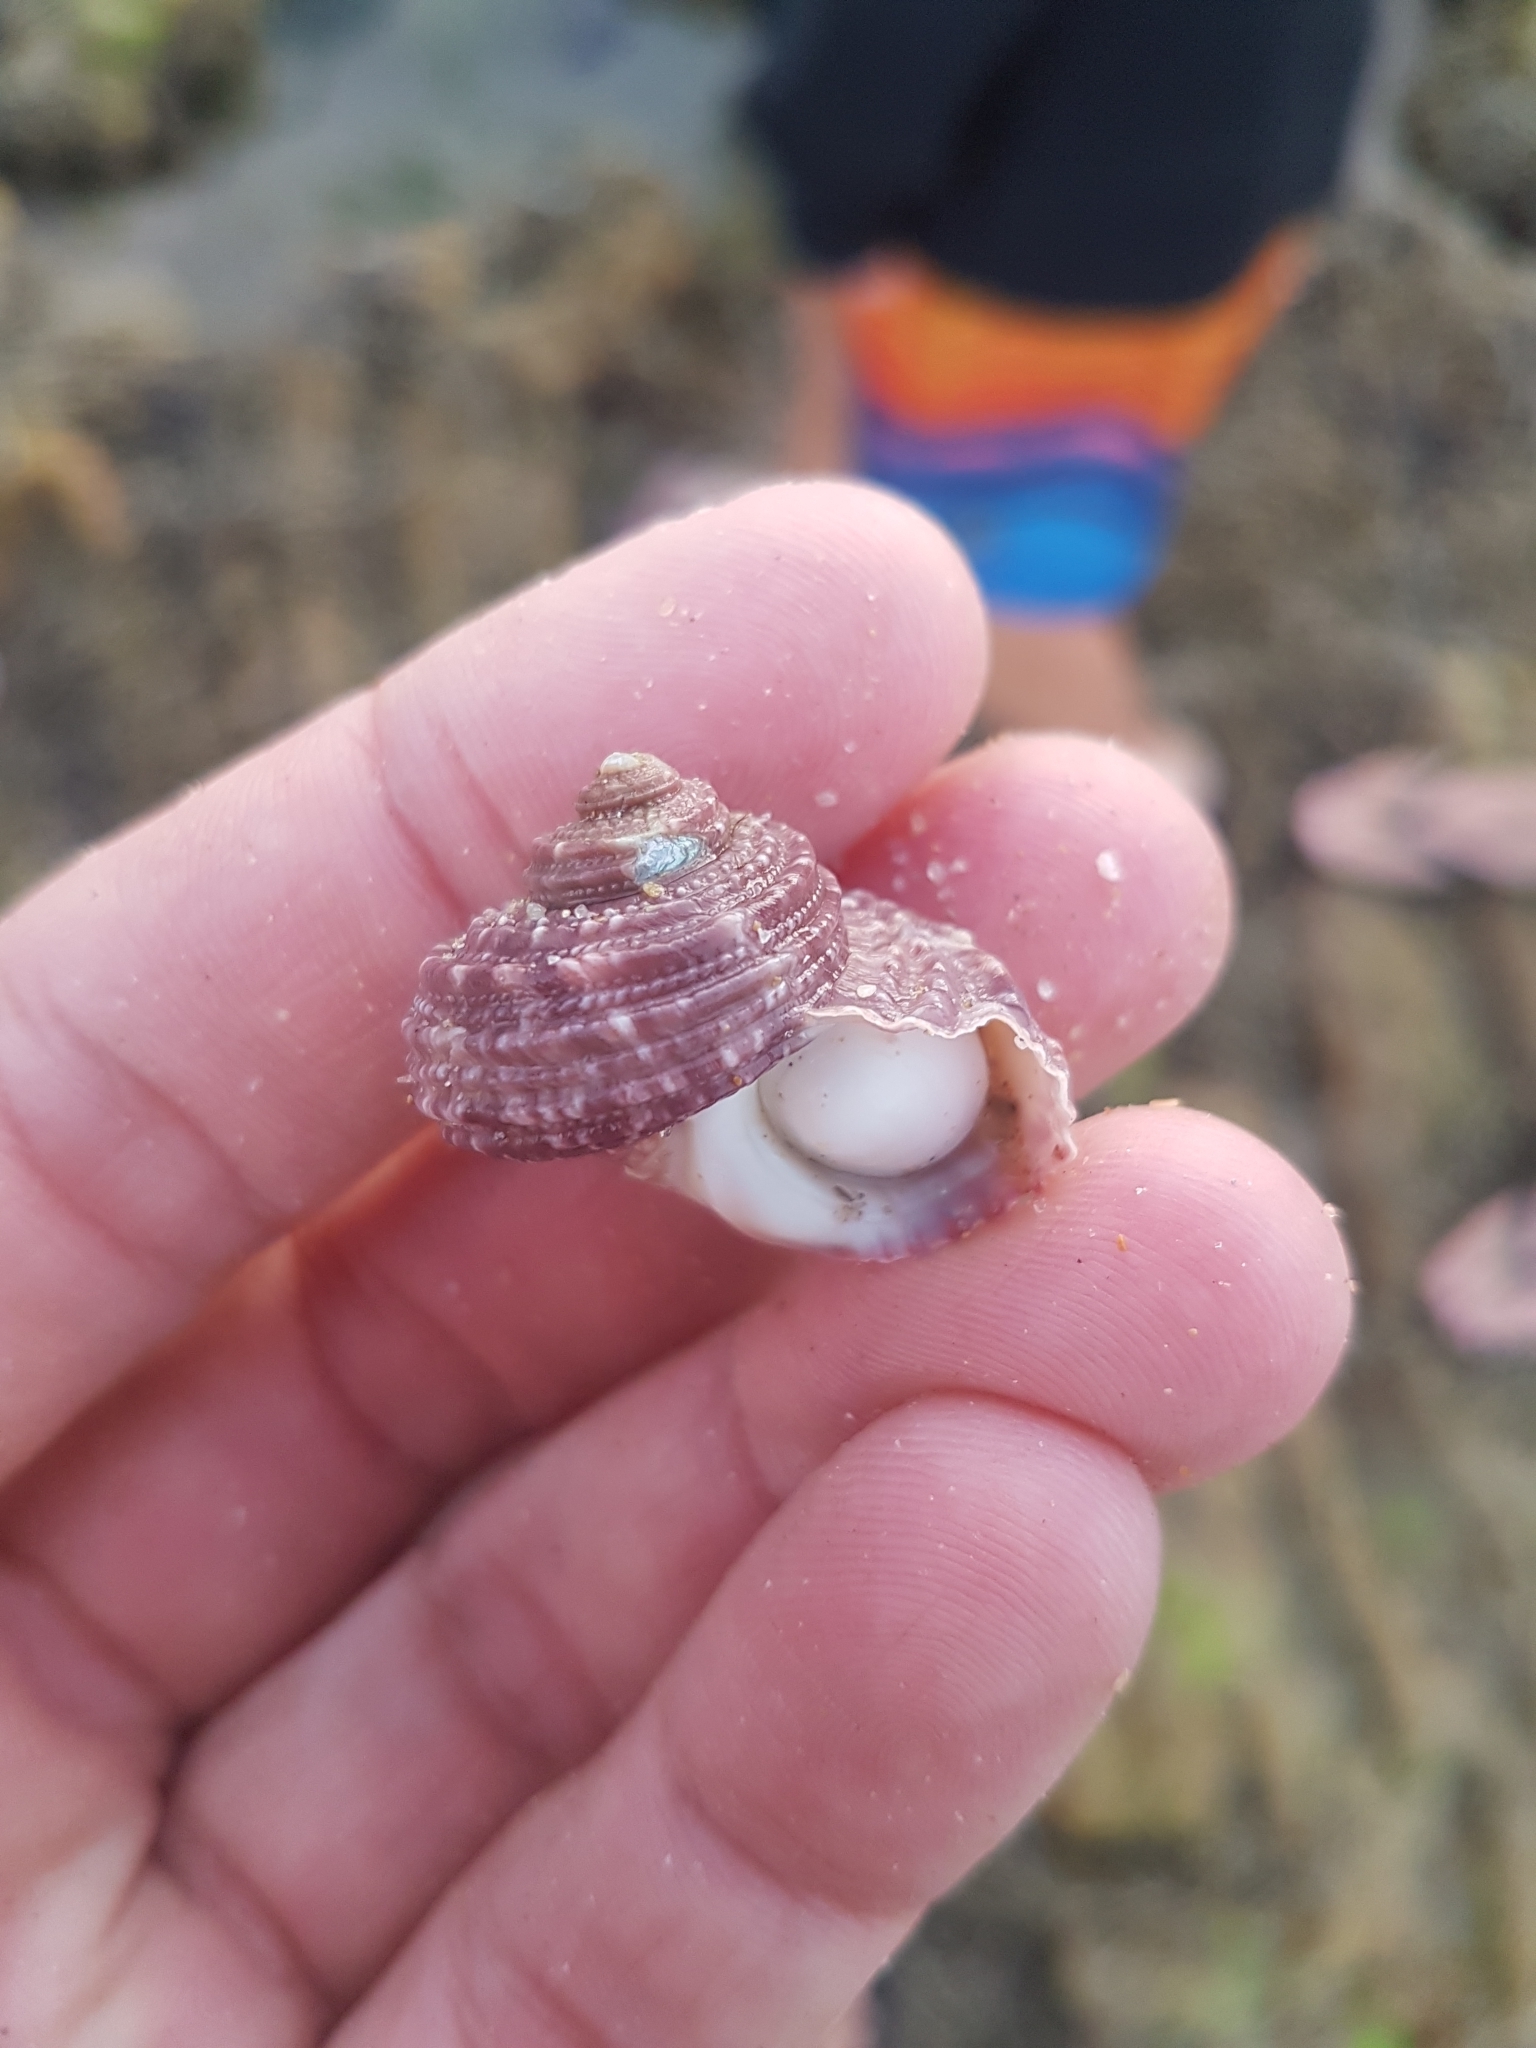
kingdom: Animalia
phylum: Mollusca
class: Gastropoda
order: Trochida
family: Turbinidae
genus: Turbo
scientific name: Turbo gruneri
